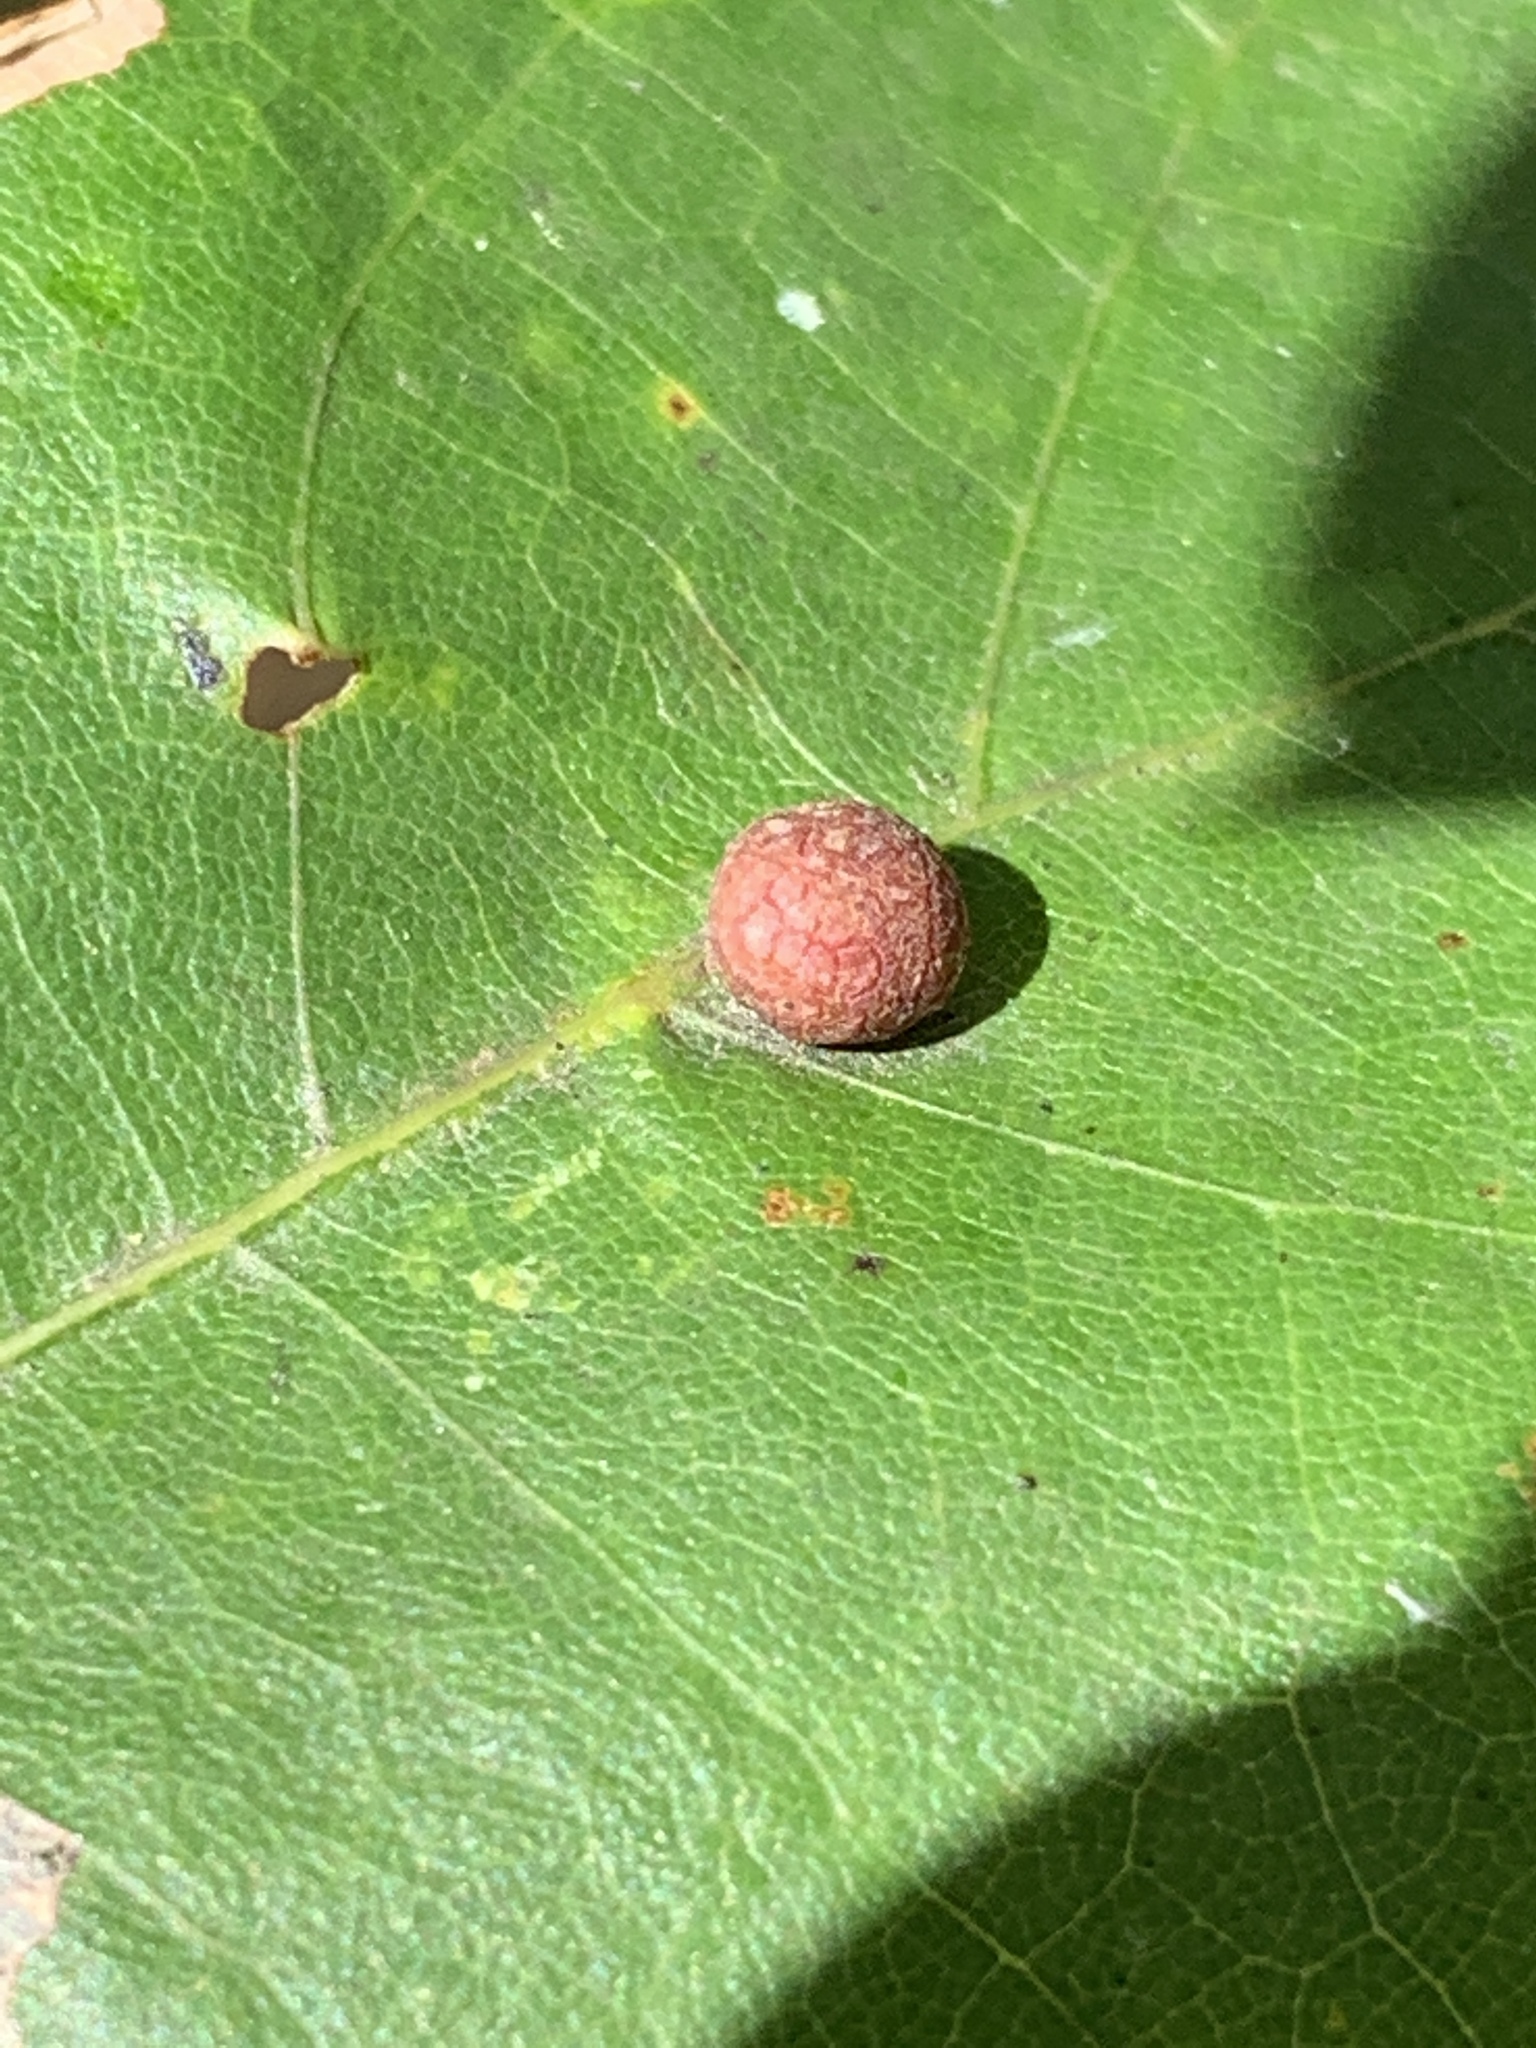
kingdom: Animalia
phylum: Arthropoda
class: Insecta
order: Diptera
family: Cecidomyiidae
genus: Polystepha
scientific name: Polystepha pilulae
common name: Oak leaf gall midge
